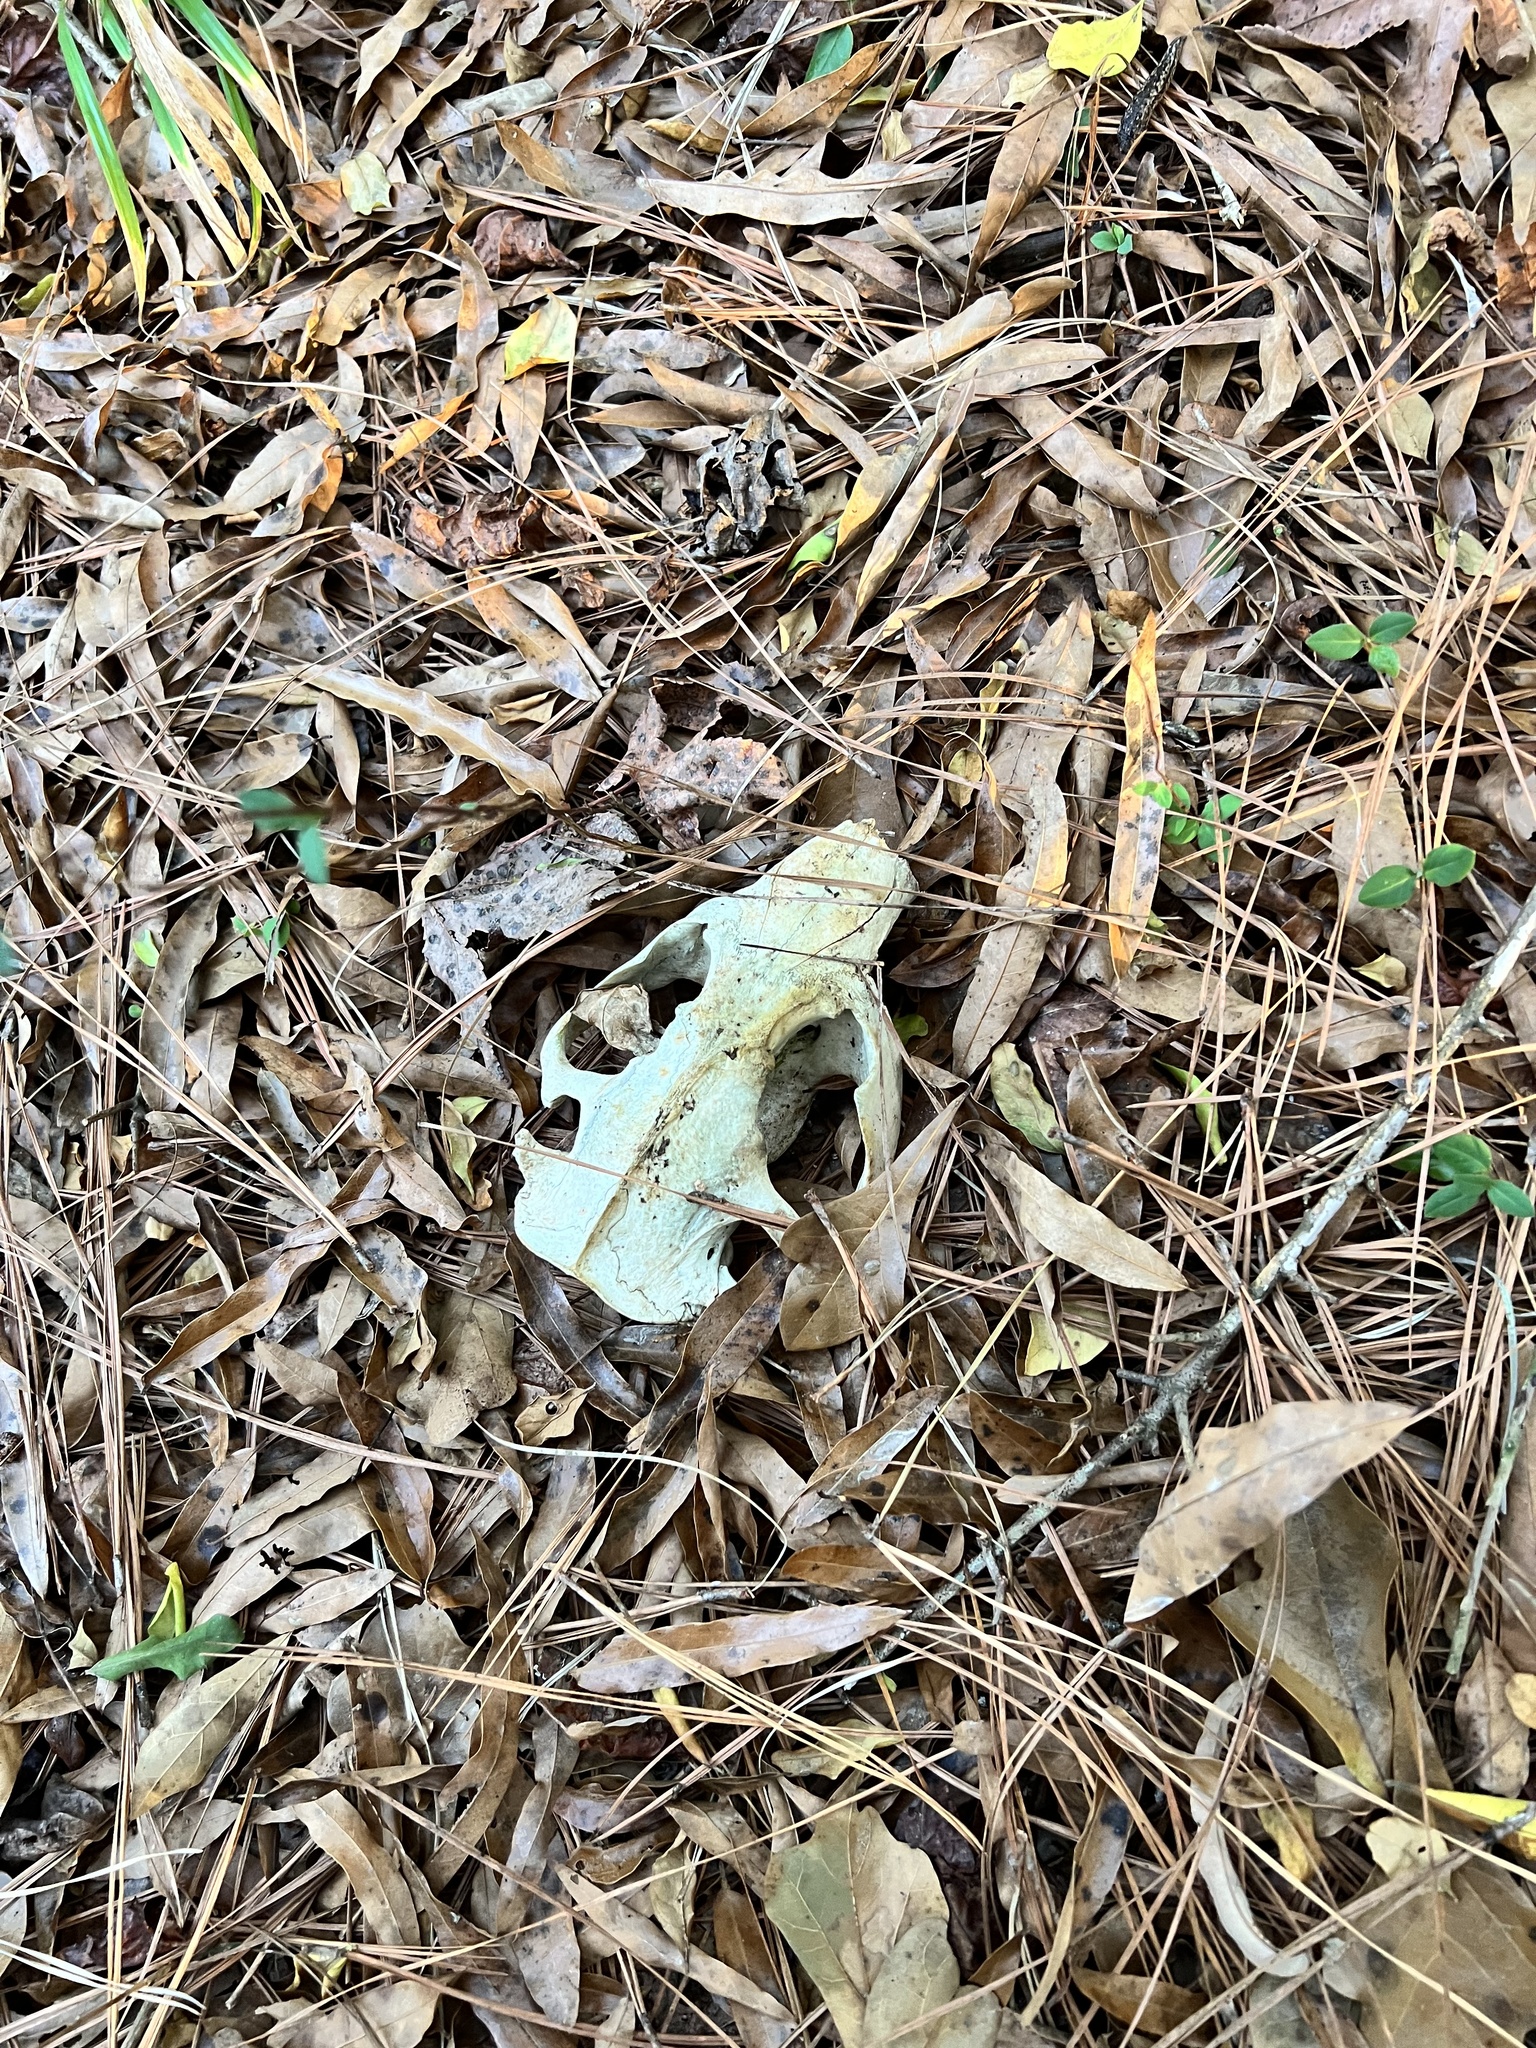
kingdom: Animalia
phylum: Chordata
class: Mammalia
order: Rodentia
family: Castoridae
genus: Castor
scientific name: Castor canadensis
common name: American beaver
